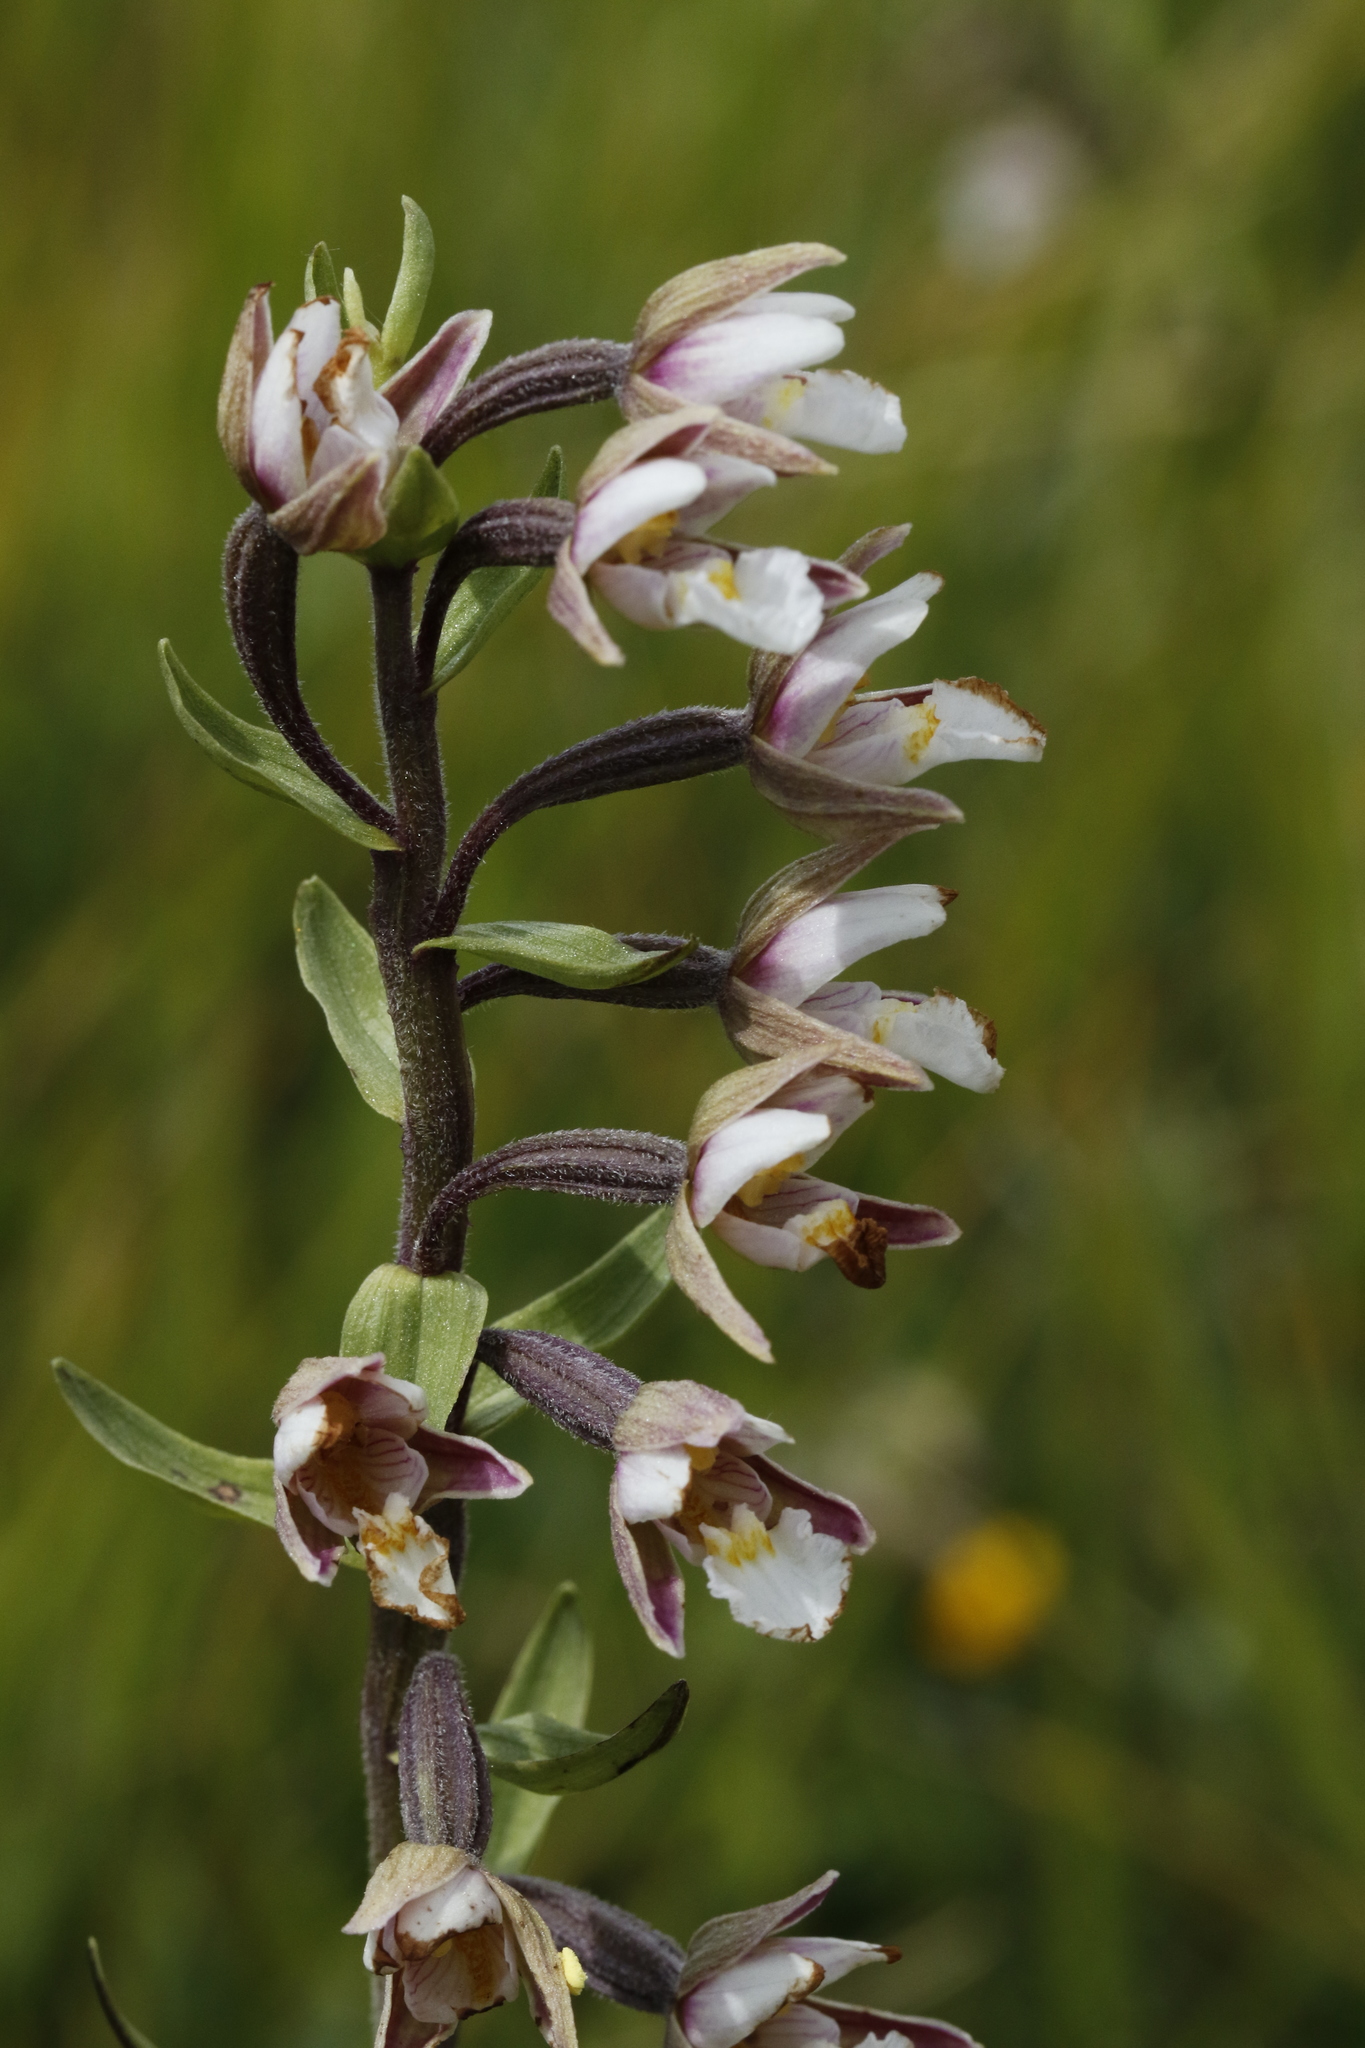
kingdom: Plantae
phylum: Tracheophyta
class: Liliopsida
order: Asparagales
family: Orchidaceae
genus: Epipactis
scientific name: Epipactis palustris
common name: Marsh helleborine
